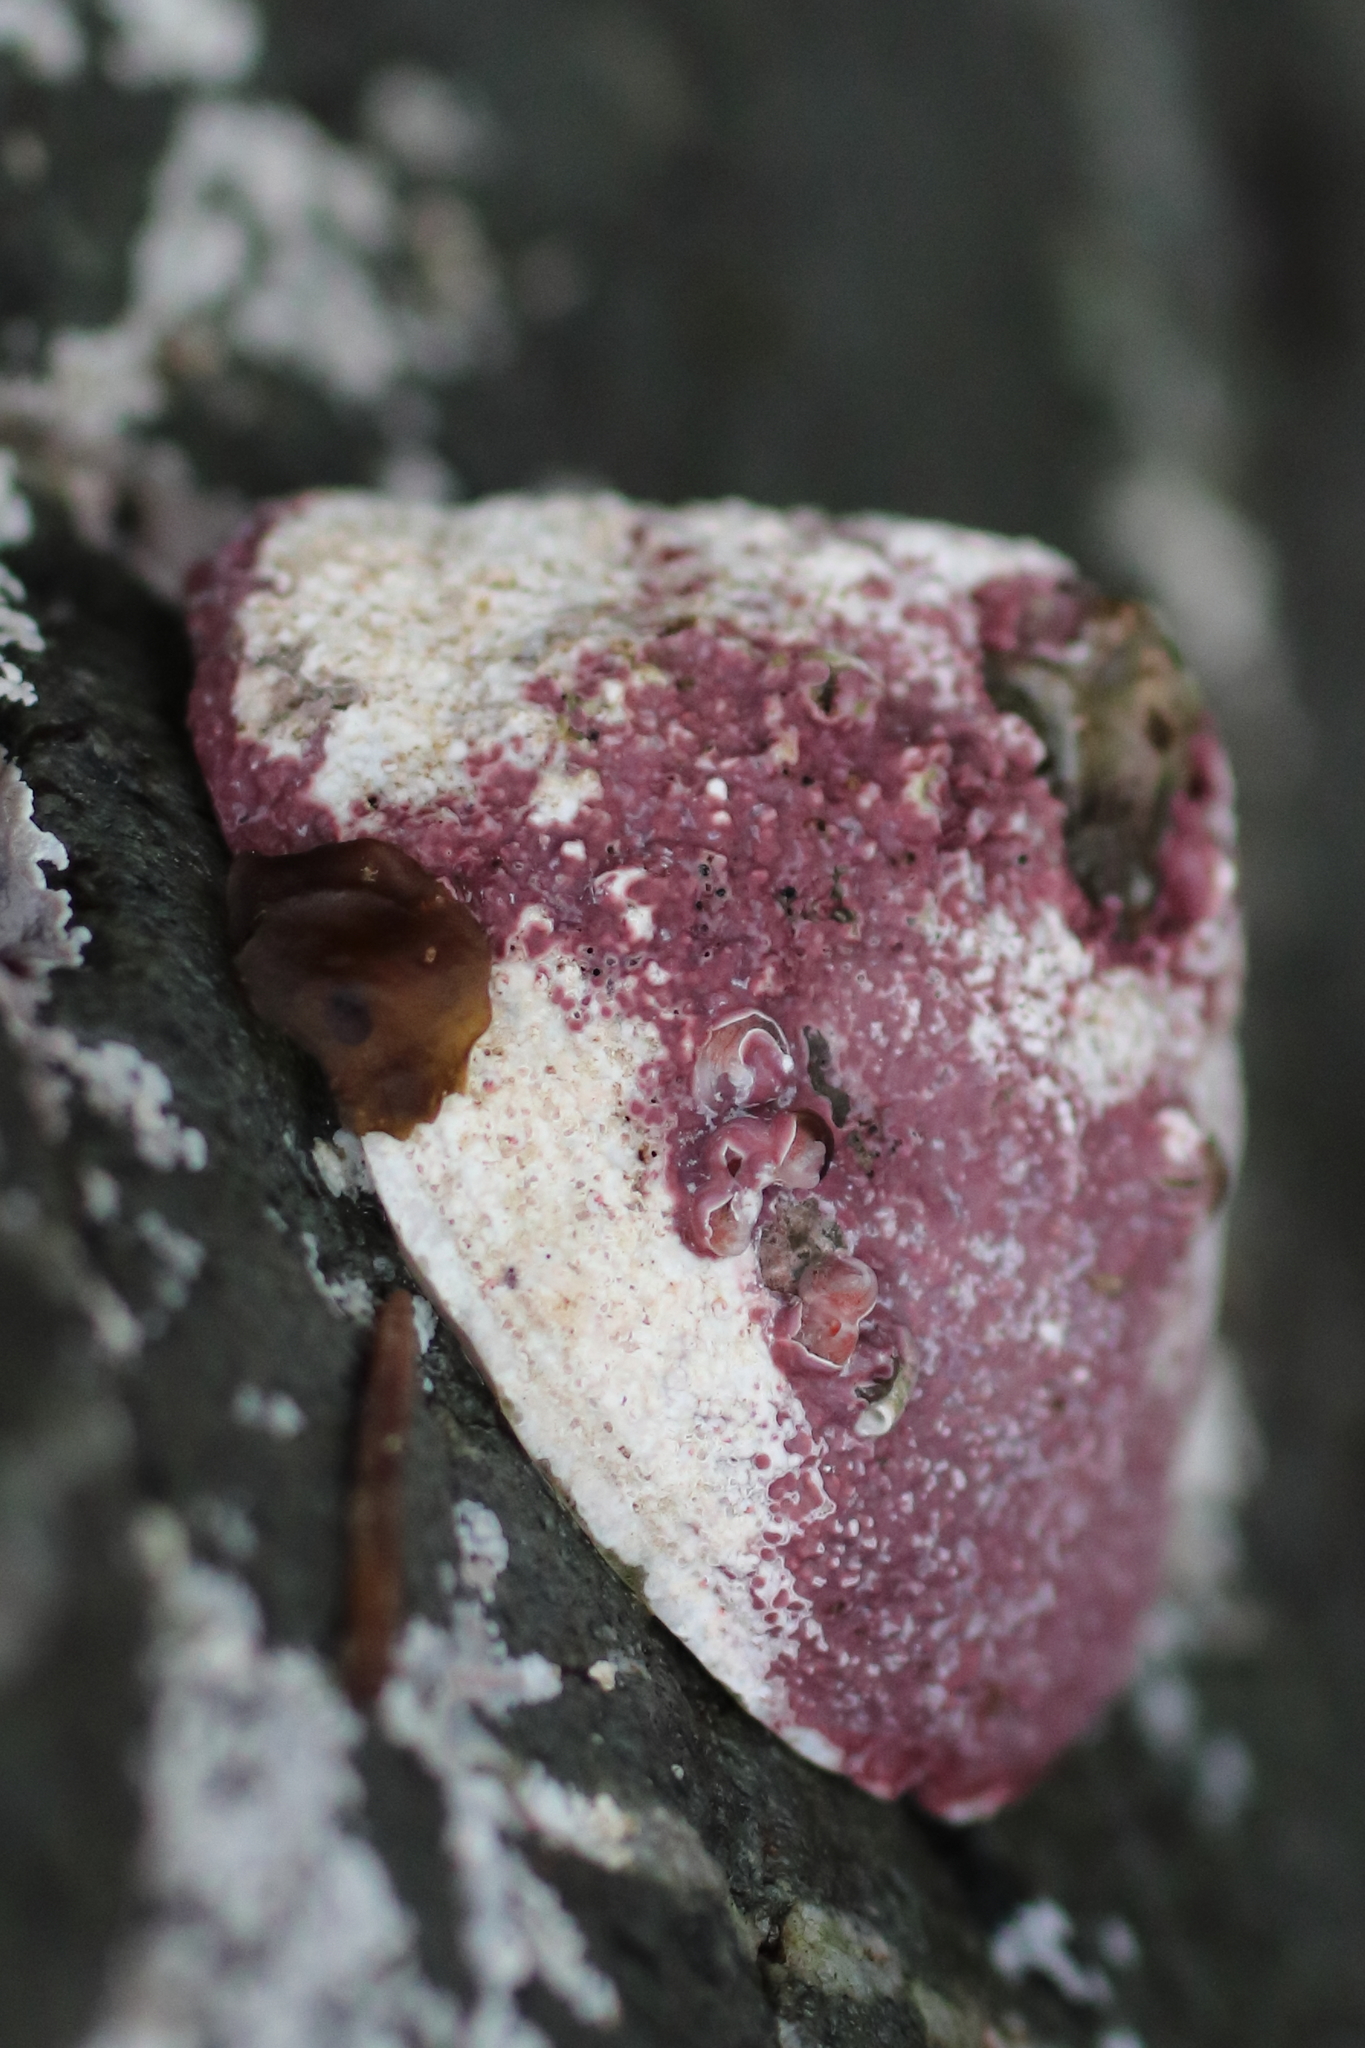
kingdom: Animalia
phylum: Mollusca
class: Gastropoda
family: Acmaeidae
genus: Acmaea
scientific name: Acmaea mitra
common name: Pacific white cap limpet
